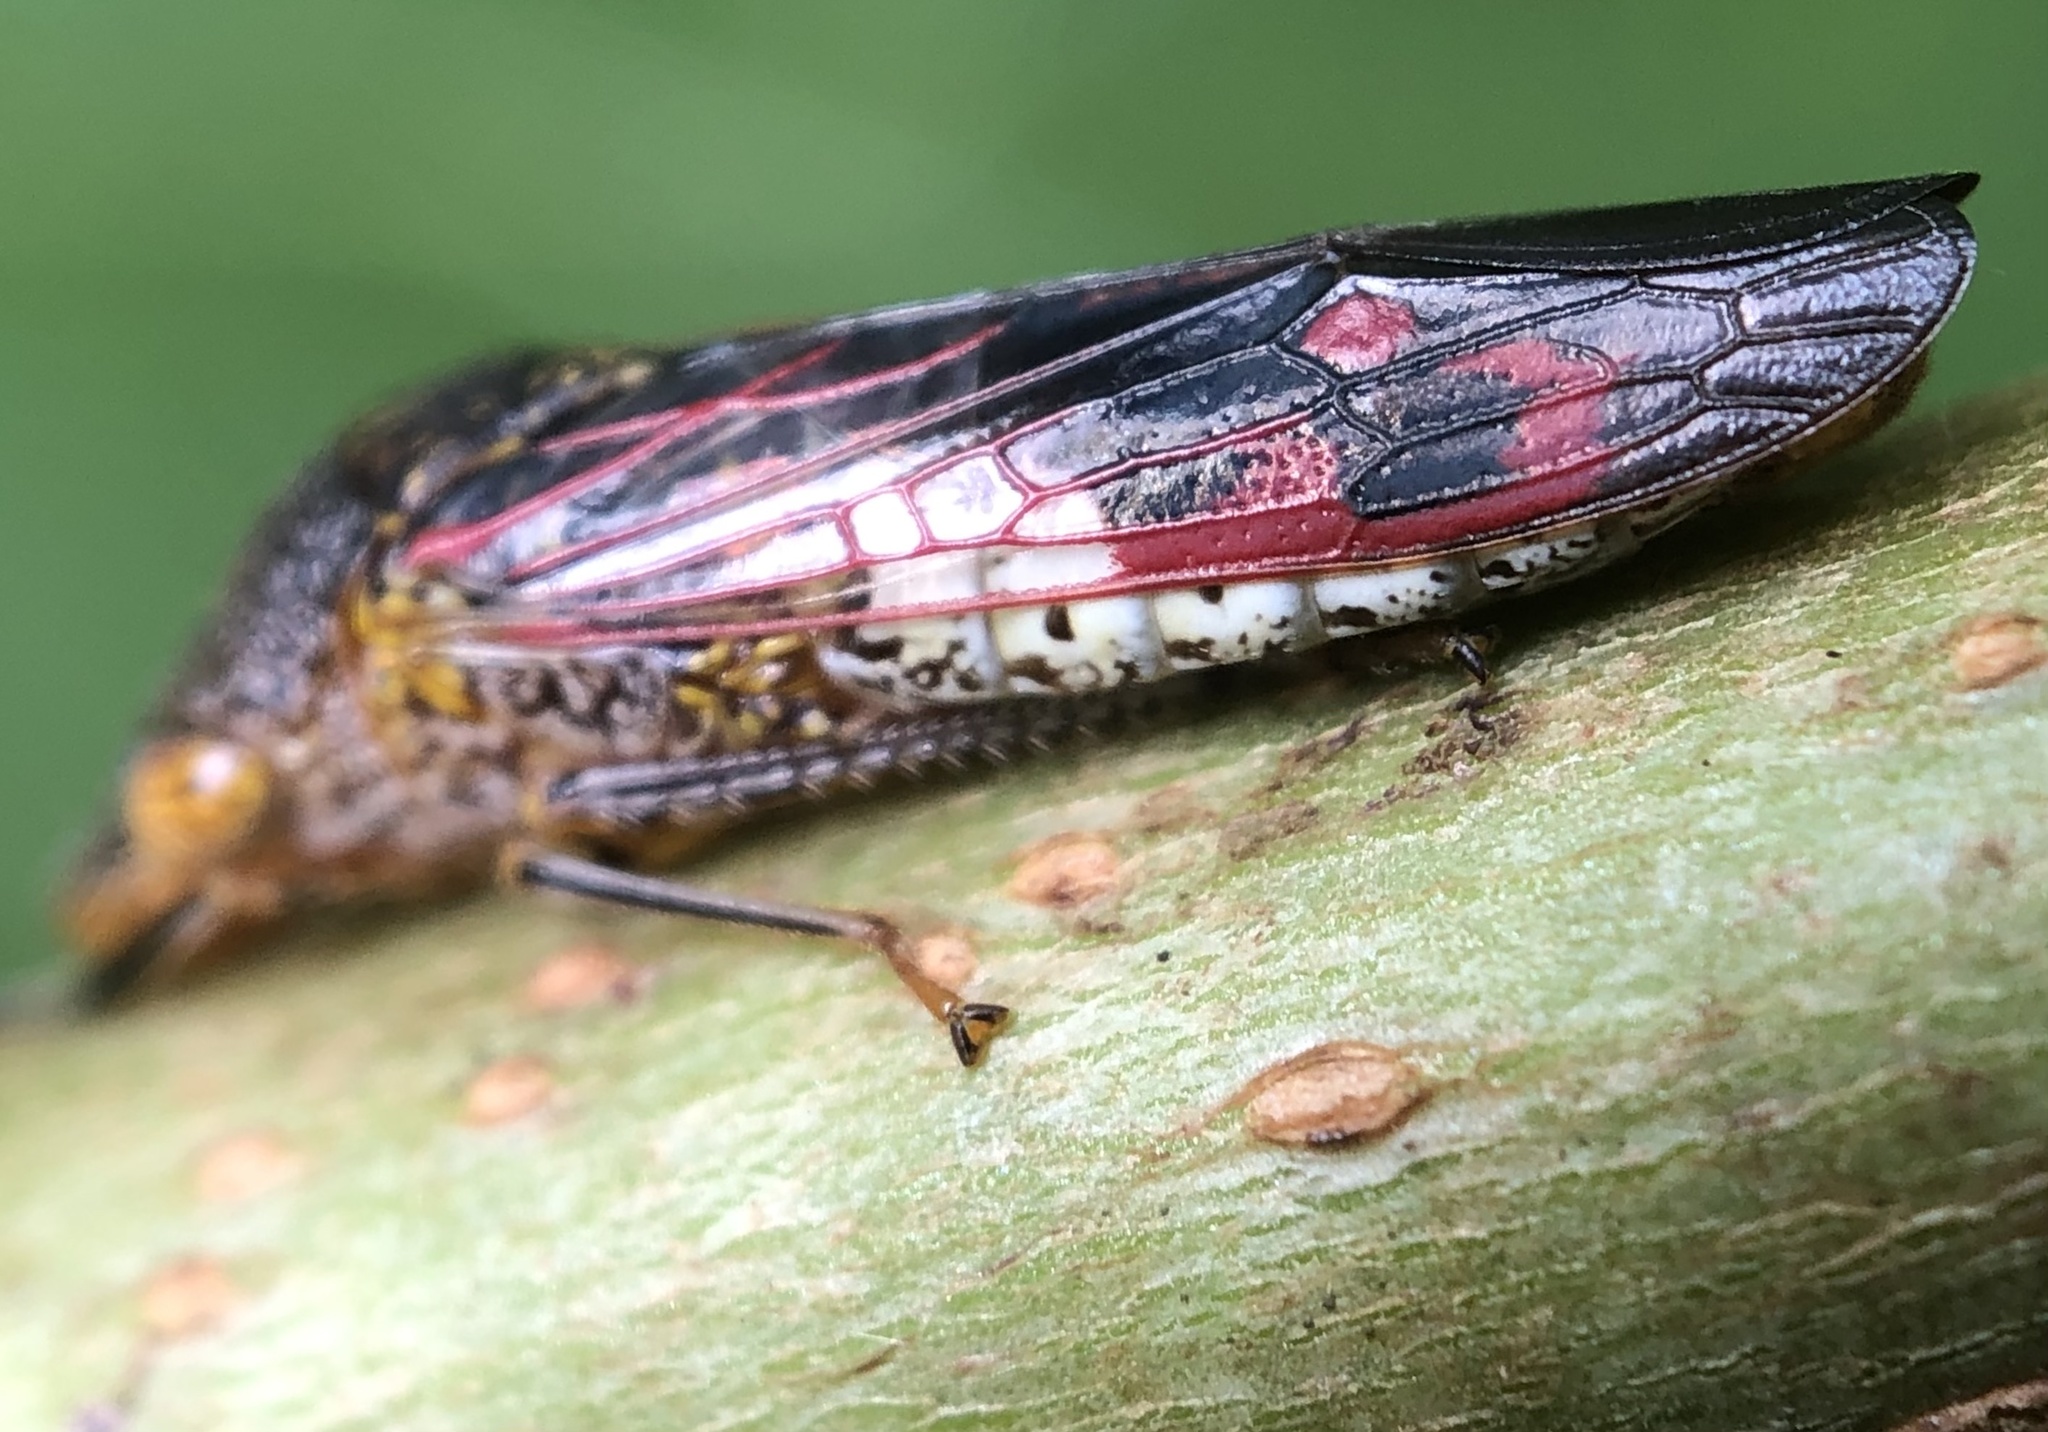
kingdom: Animalia
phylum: Arthropoda
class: Insecta
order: Hemiptera
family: Cicadellidae
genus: Homalodisca
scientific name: Homalodisca vitripennis
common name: Glassy-winged sharpshooter
